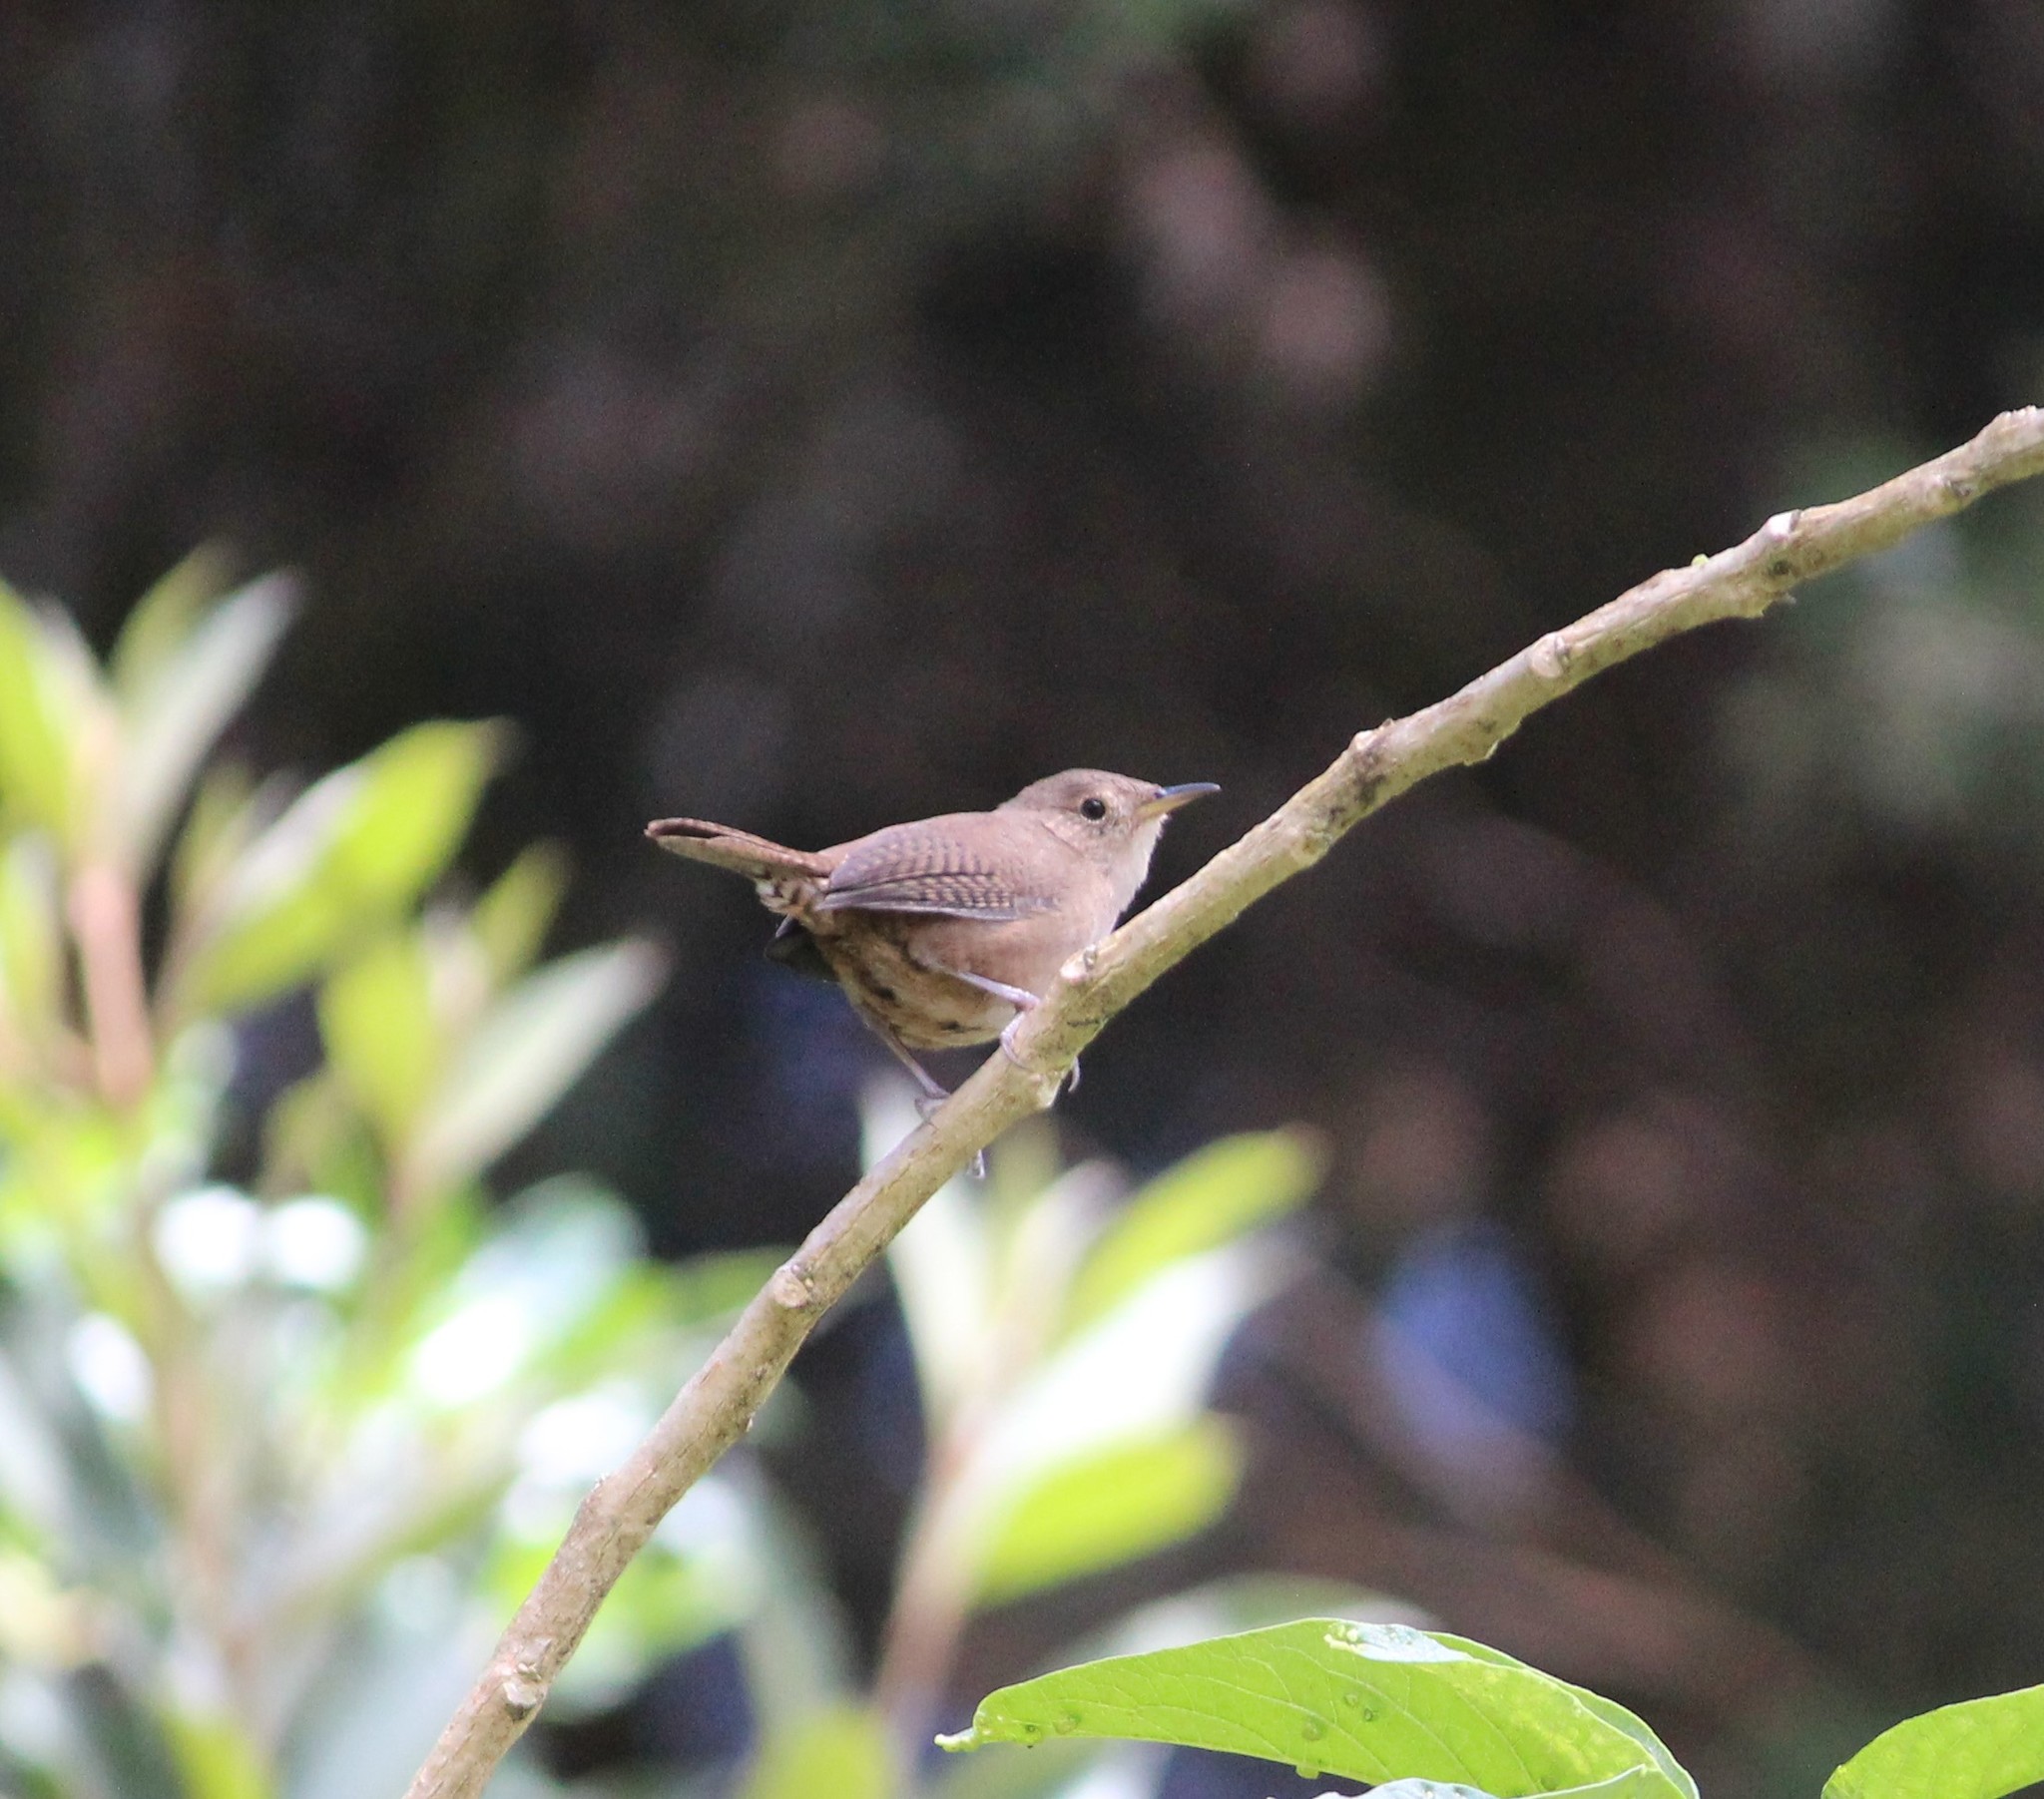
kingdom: Animalia
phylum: Chordata
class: Aves
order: Passeriformes
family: Troglodytidae
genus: Troglodytes
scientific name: Troglodytes aedon
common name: House wren
